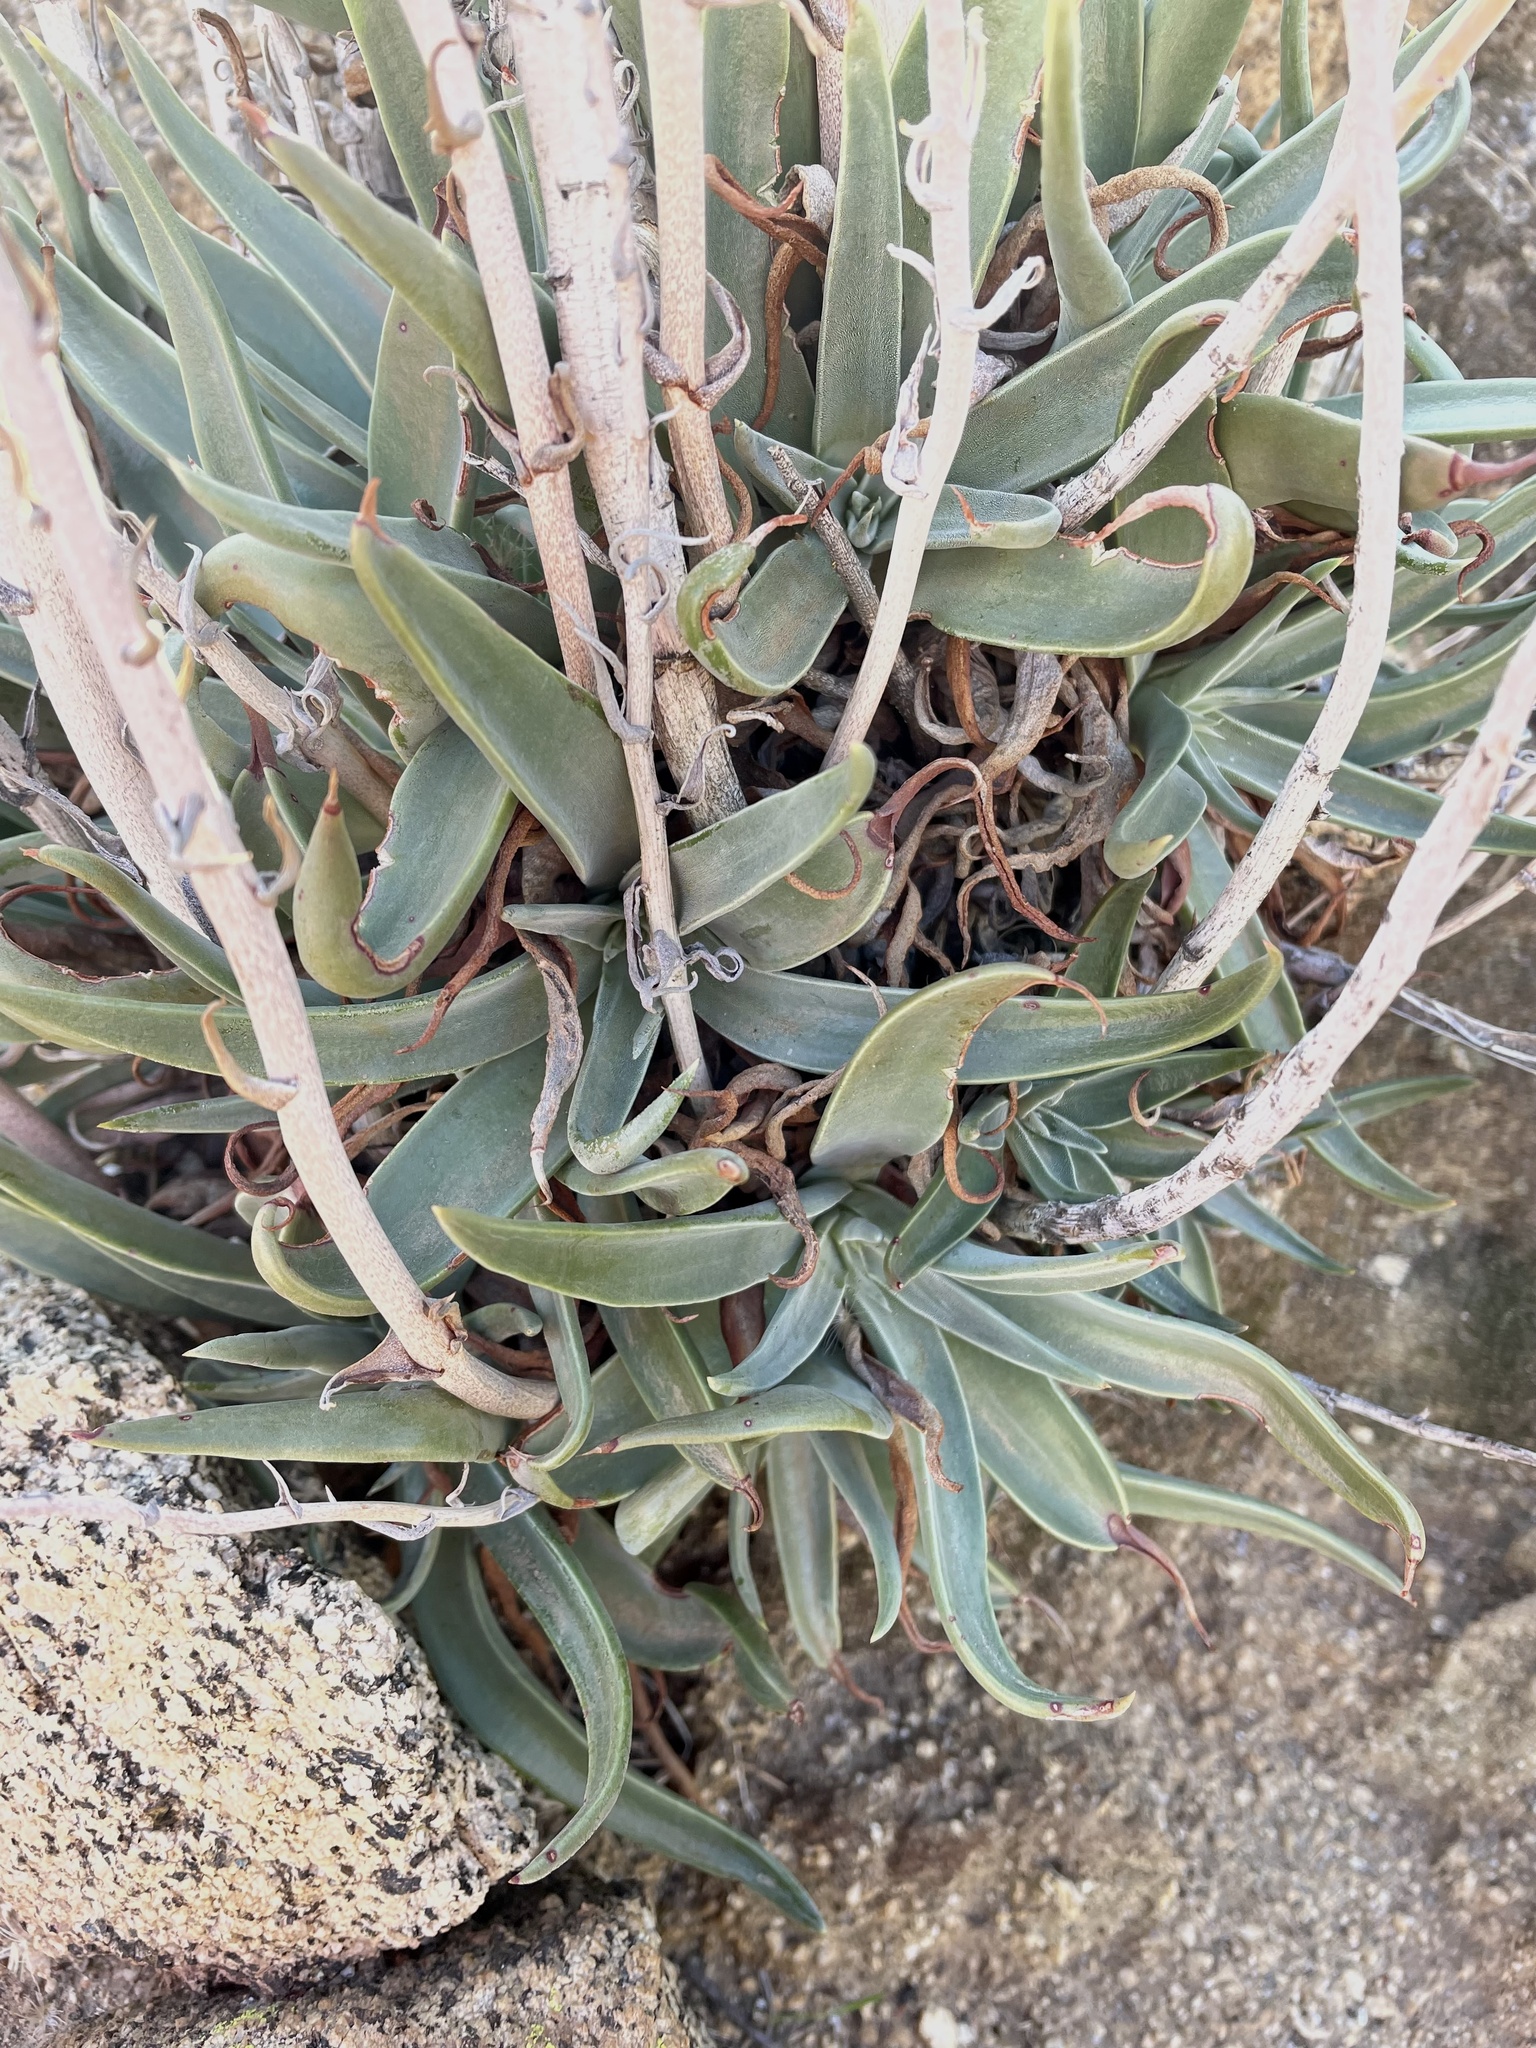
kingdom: Plantae
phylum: Tracheophyta
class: Magnoliopsida
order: Saxifragales
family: Crassulaceae
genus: Dudleya
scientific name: Dudleya saxosa
